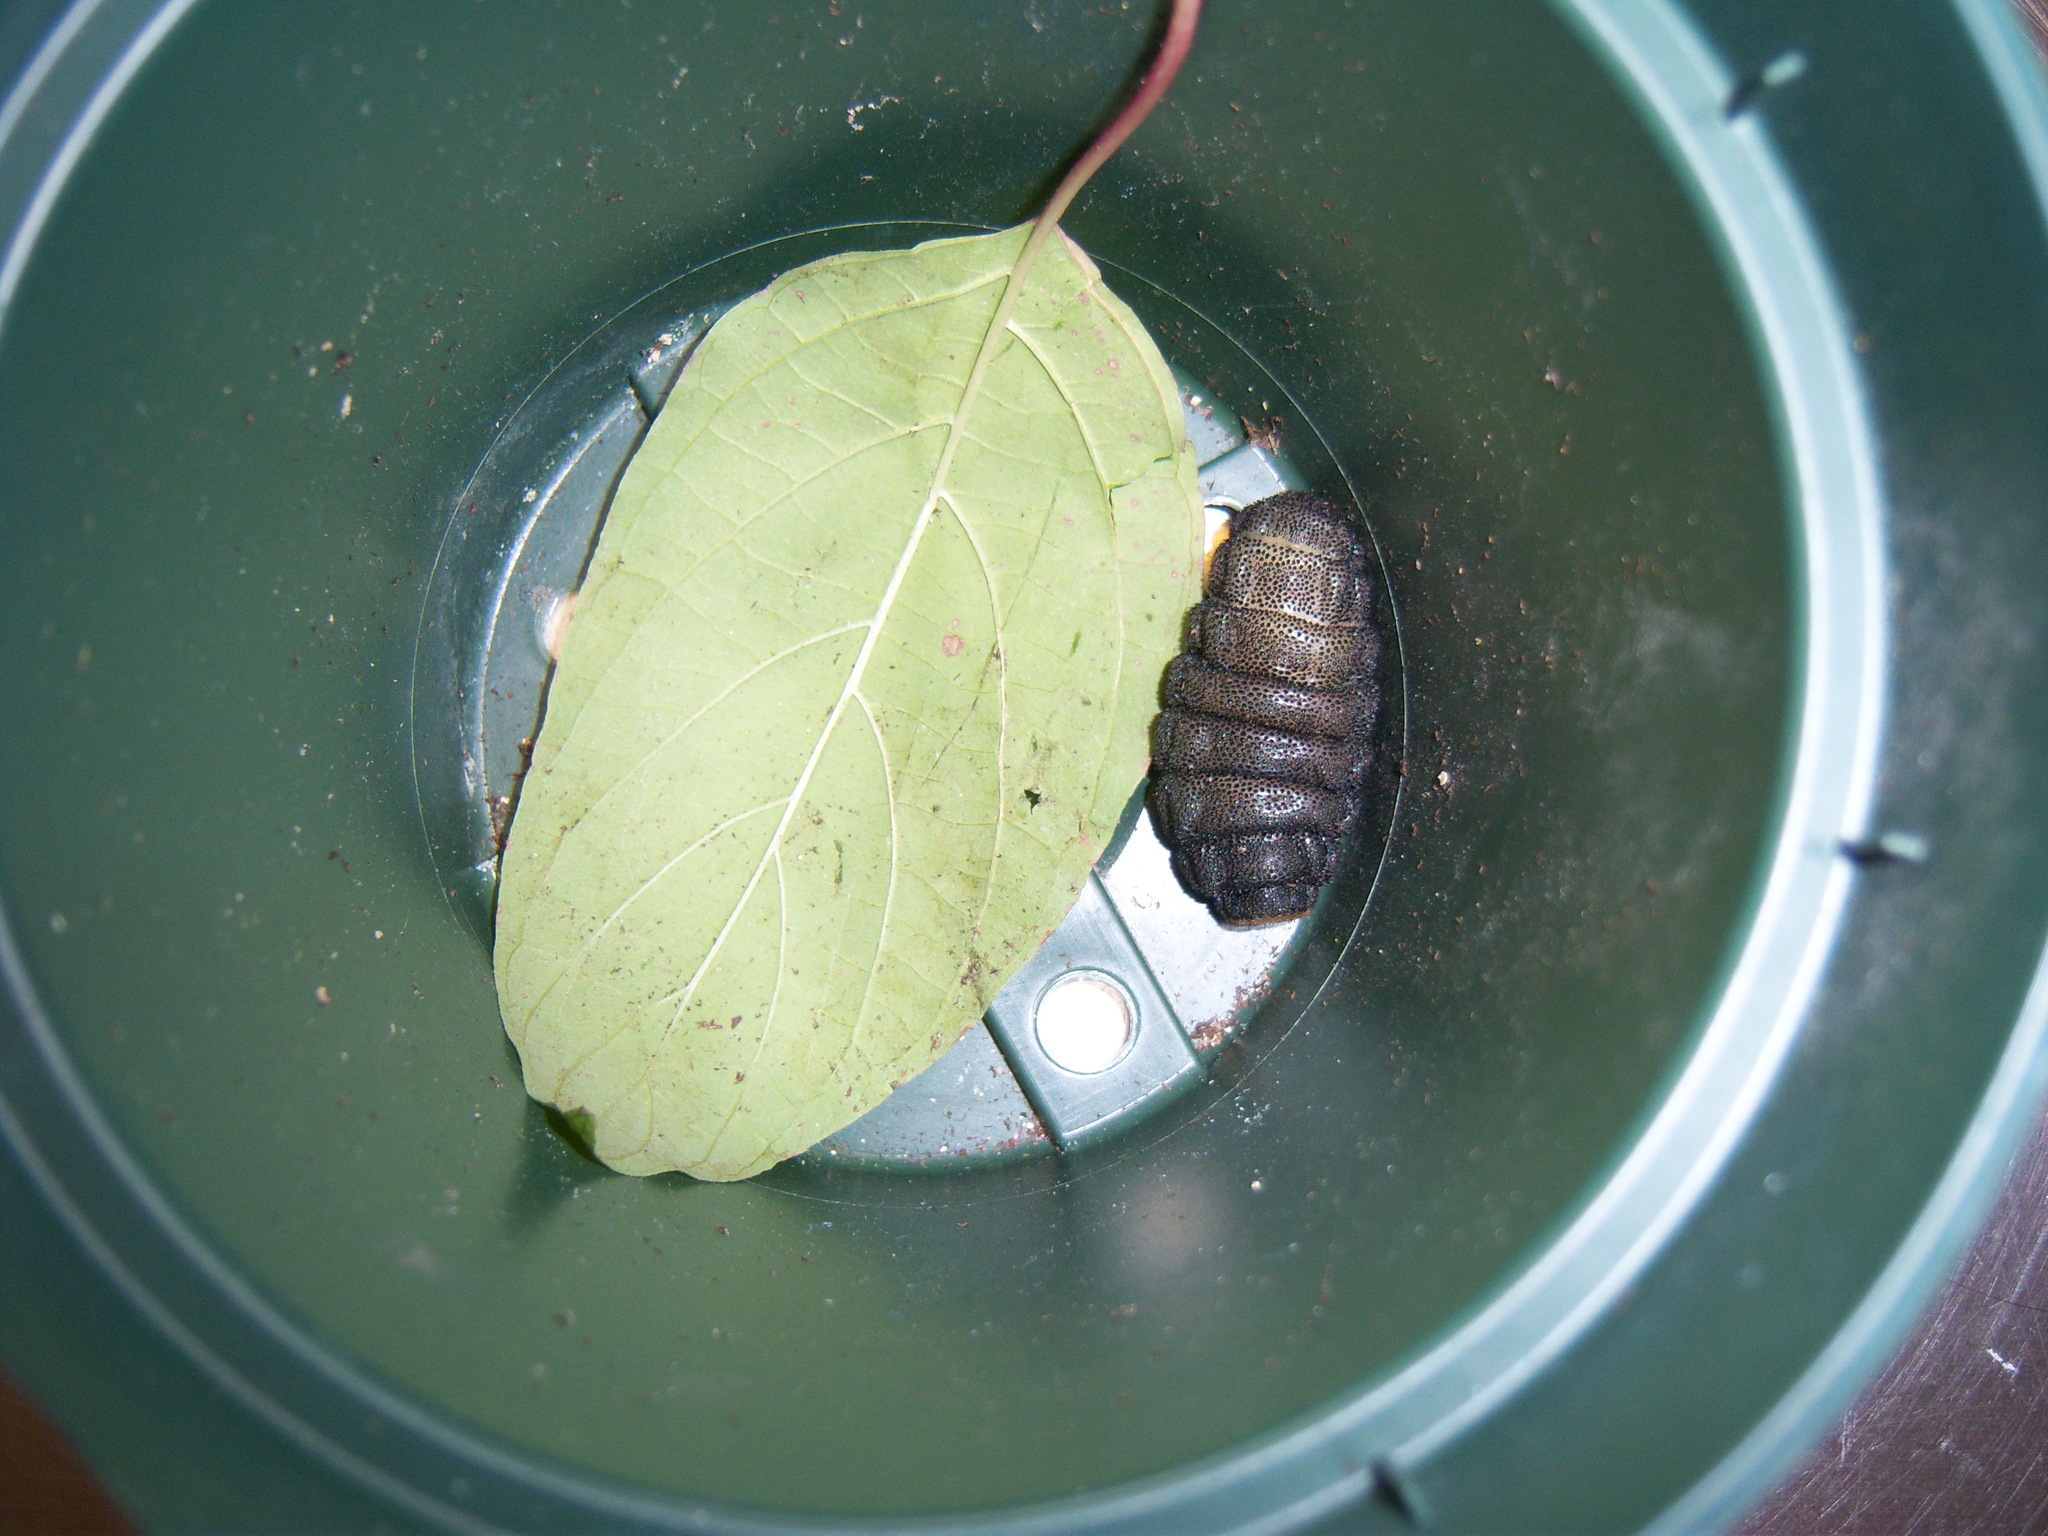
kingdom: Animalia
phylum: Arthropoda
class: Insecta
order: Diptera
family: Oestridae
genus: Cuterebra
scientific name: Cuterebra
